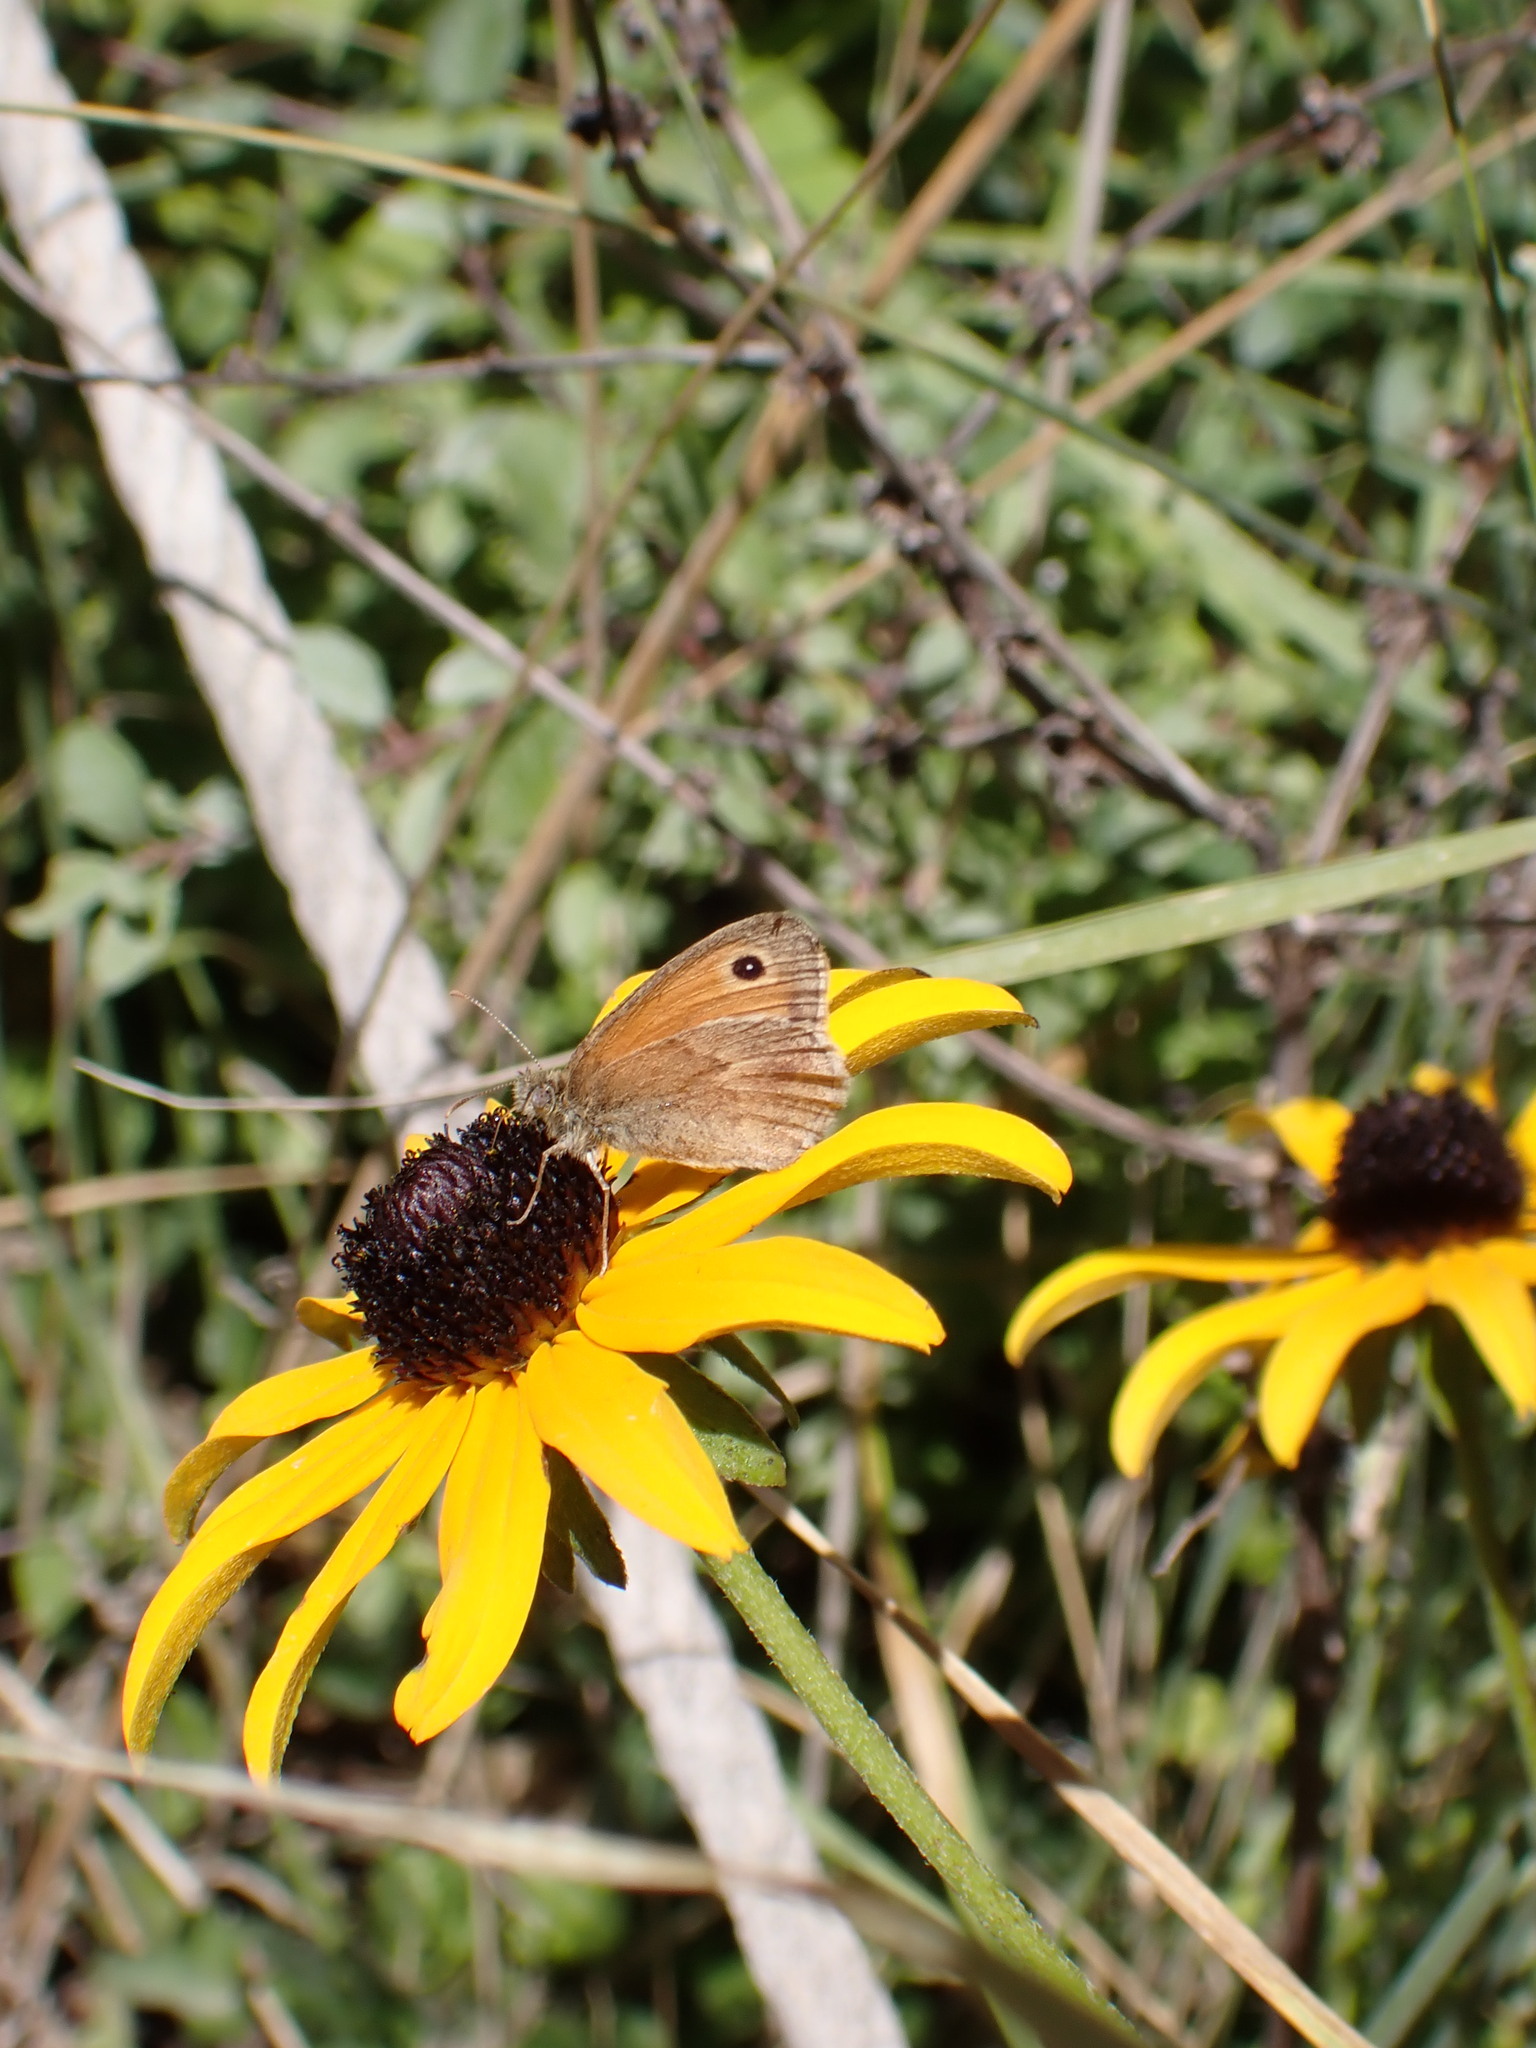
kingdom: Animalia
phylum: Arthropoda
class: Insecta
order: Lepidoptera
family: Nymphalidae
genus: Coenonympha
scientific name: Coenonympha pamphilus
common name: Small heath
